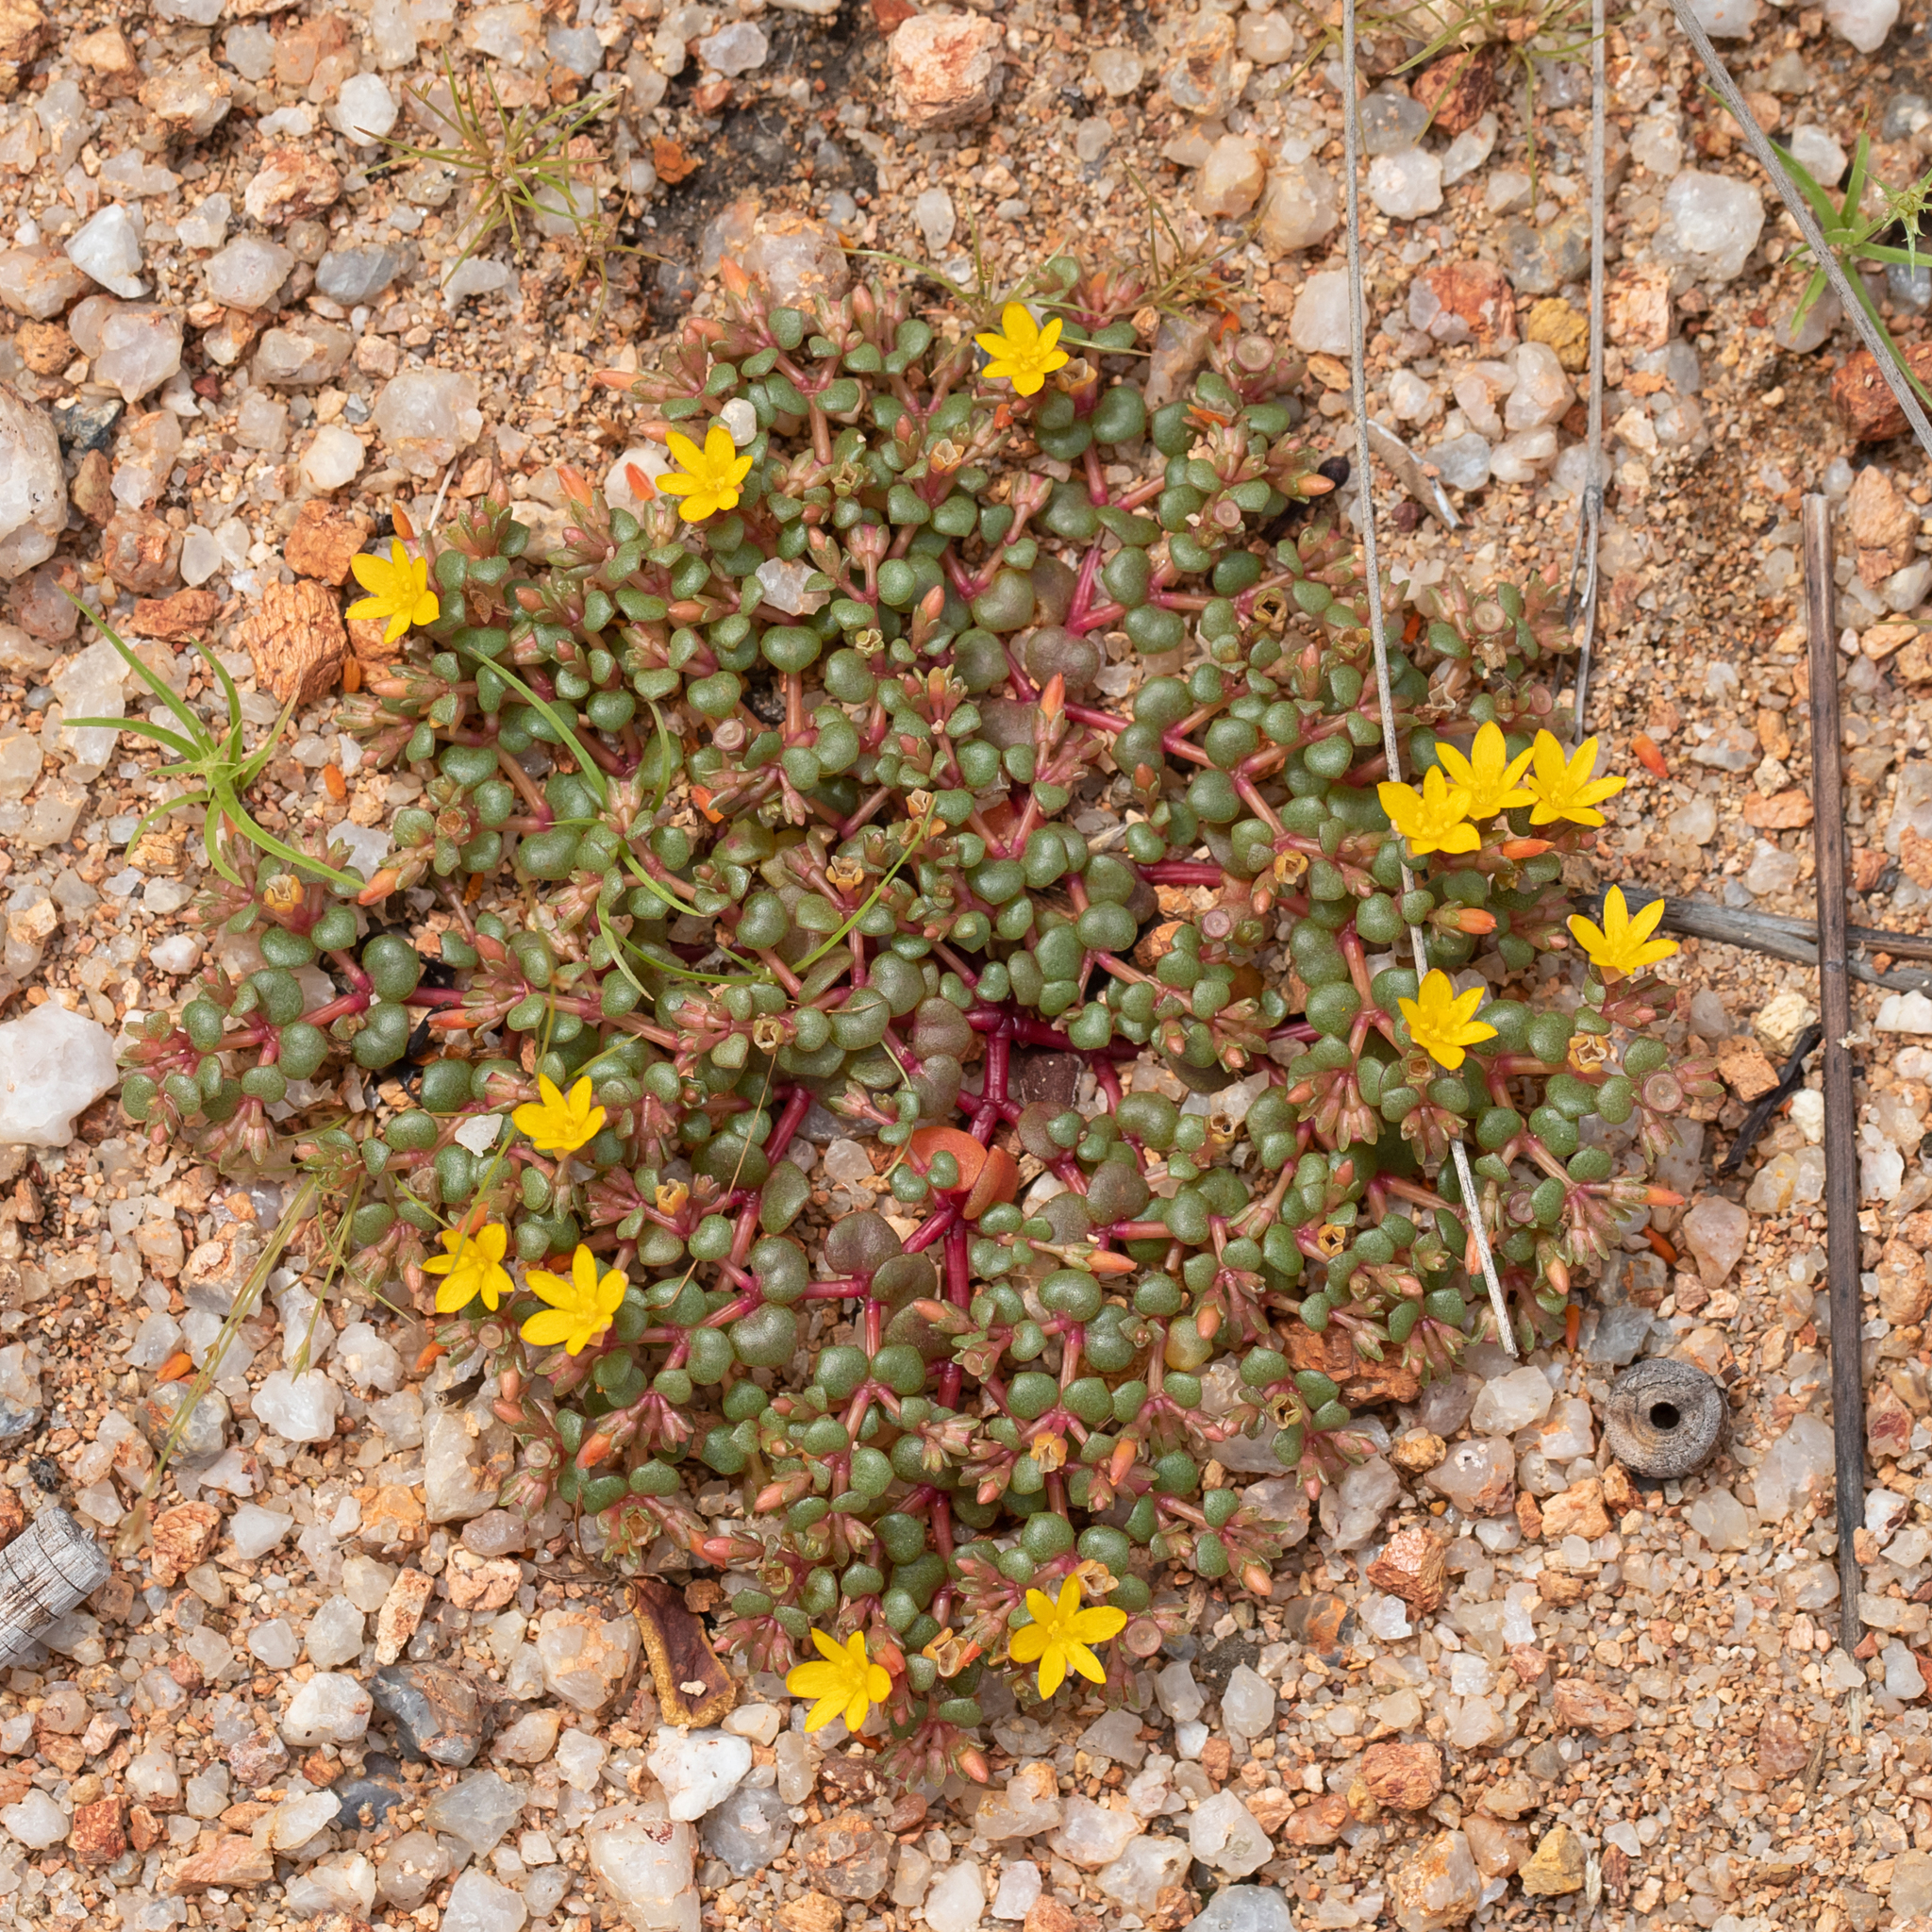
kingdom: Plantae
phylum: Tracheophyta
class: Magnoliopsida
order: Caryophyllales
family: Portulacaceae
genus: Portulaca
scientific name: Portulaca bicolor
